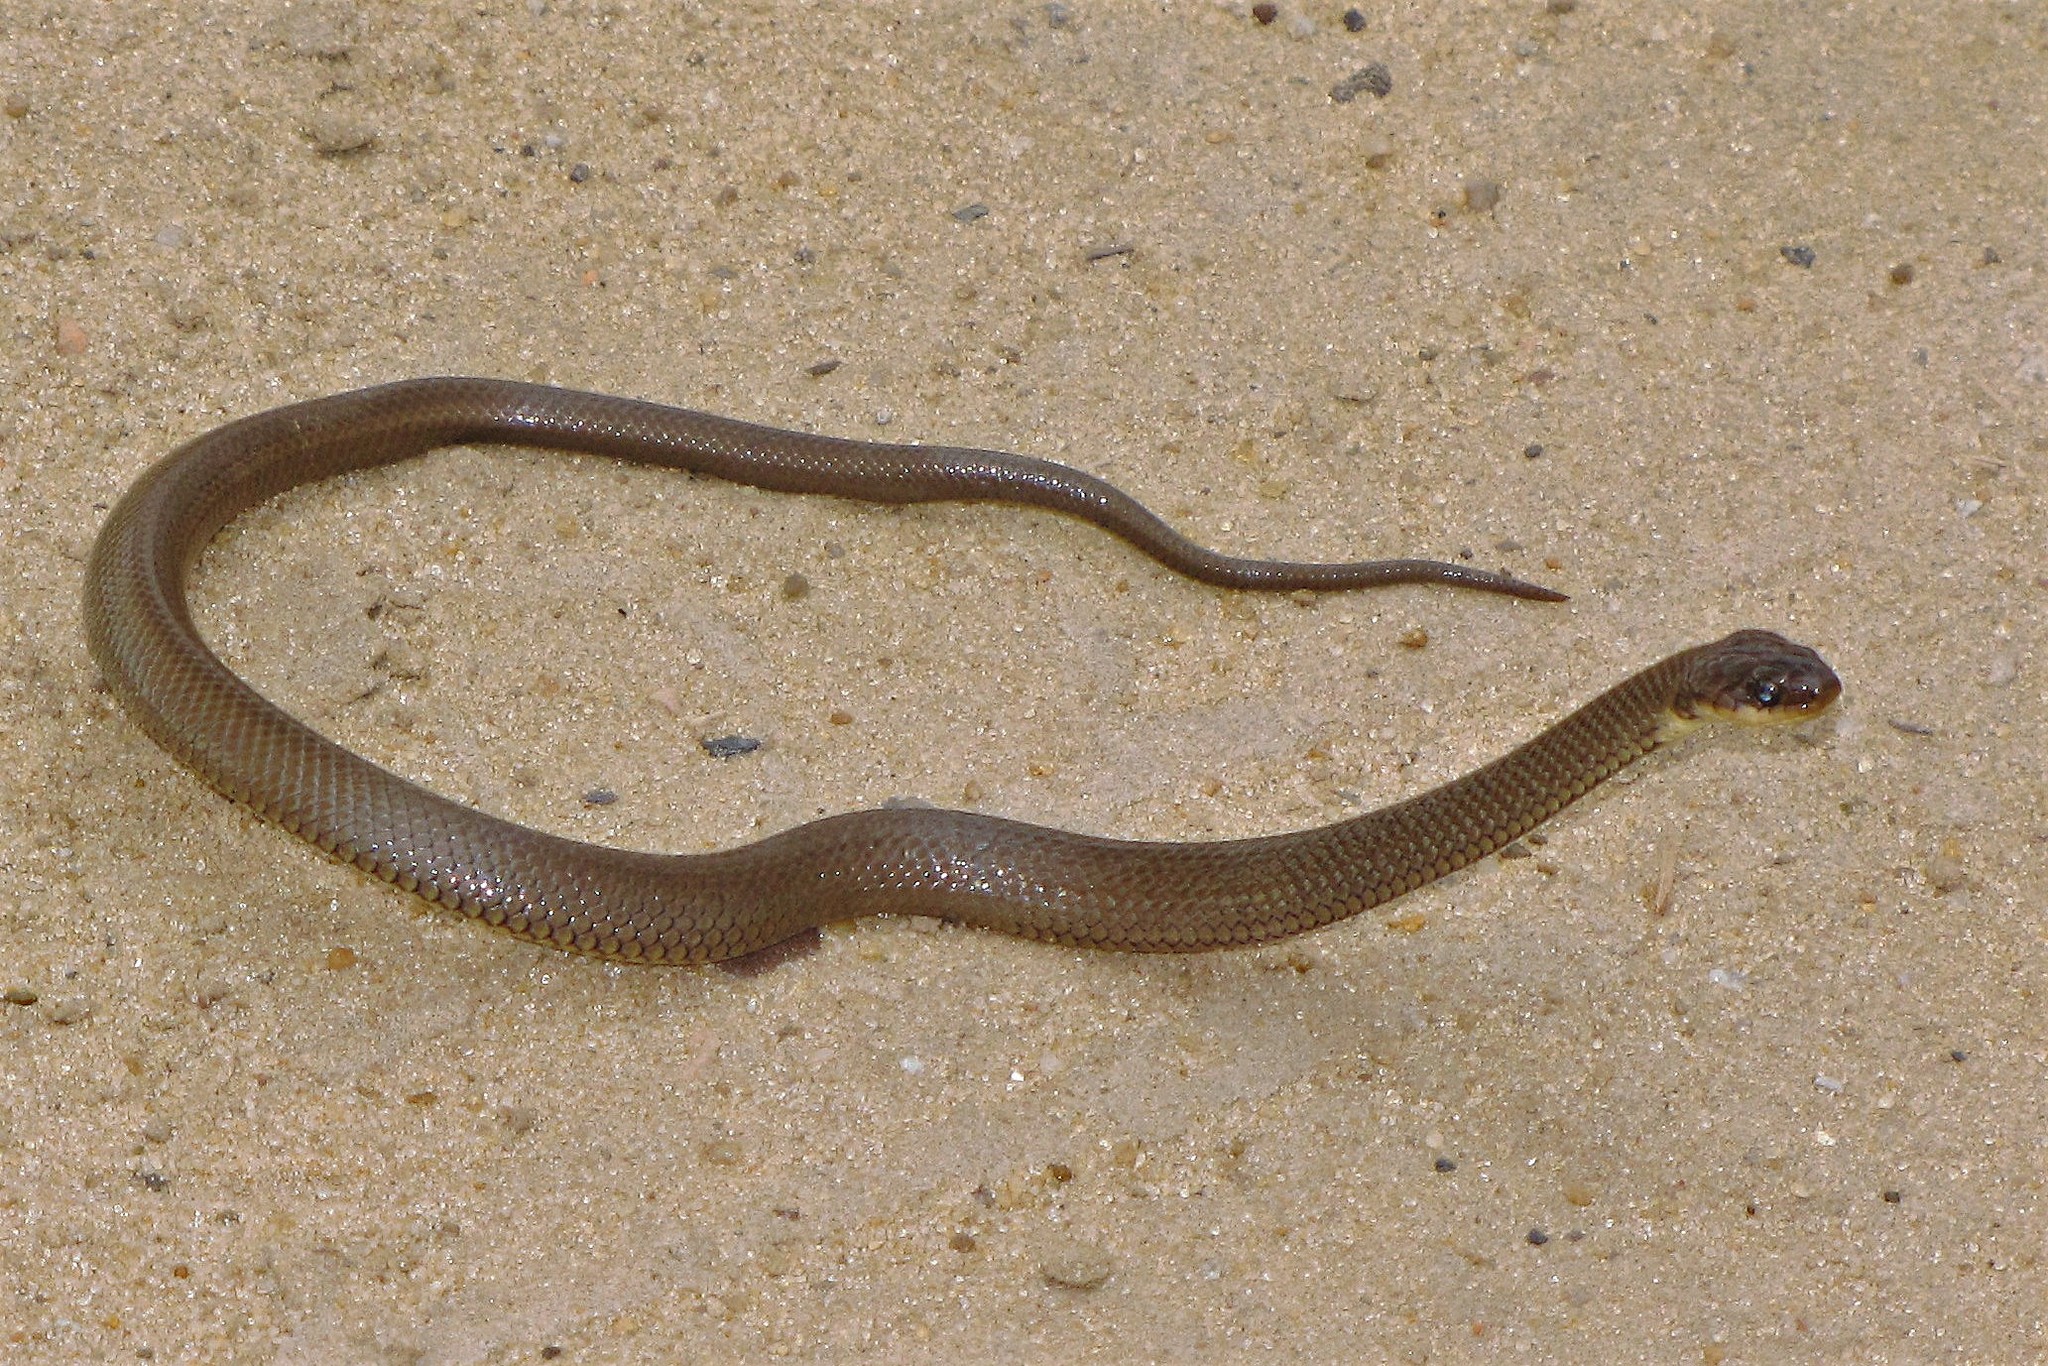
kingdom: Animalia
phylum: Chordata
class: Squamata
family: Colubridae
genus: Paraphimophis
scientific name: Paraphimophis rusticus
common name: Culebra
